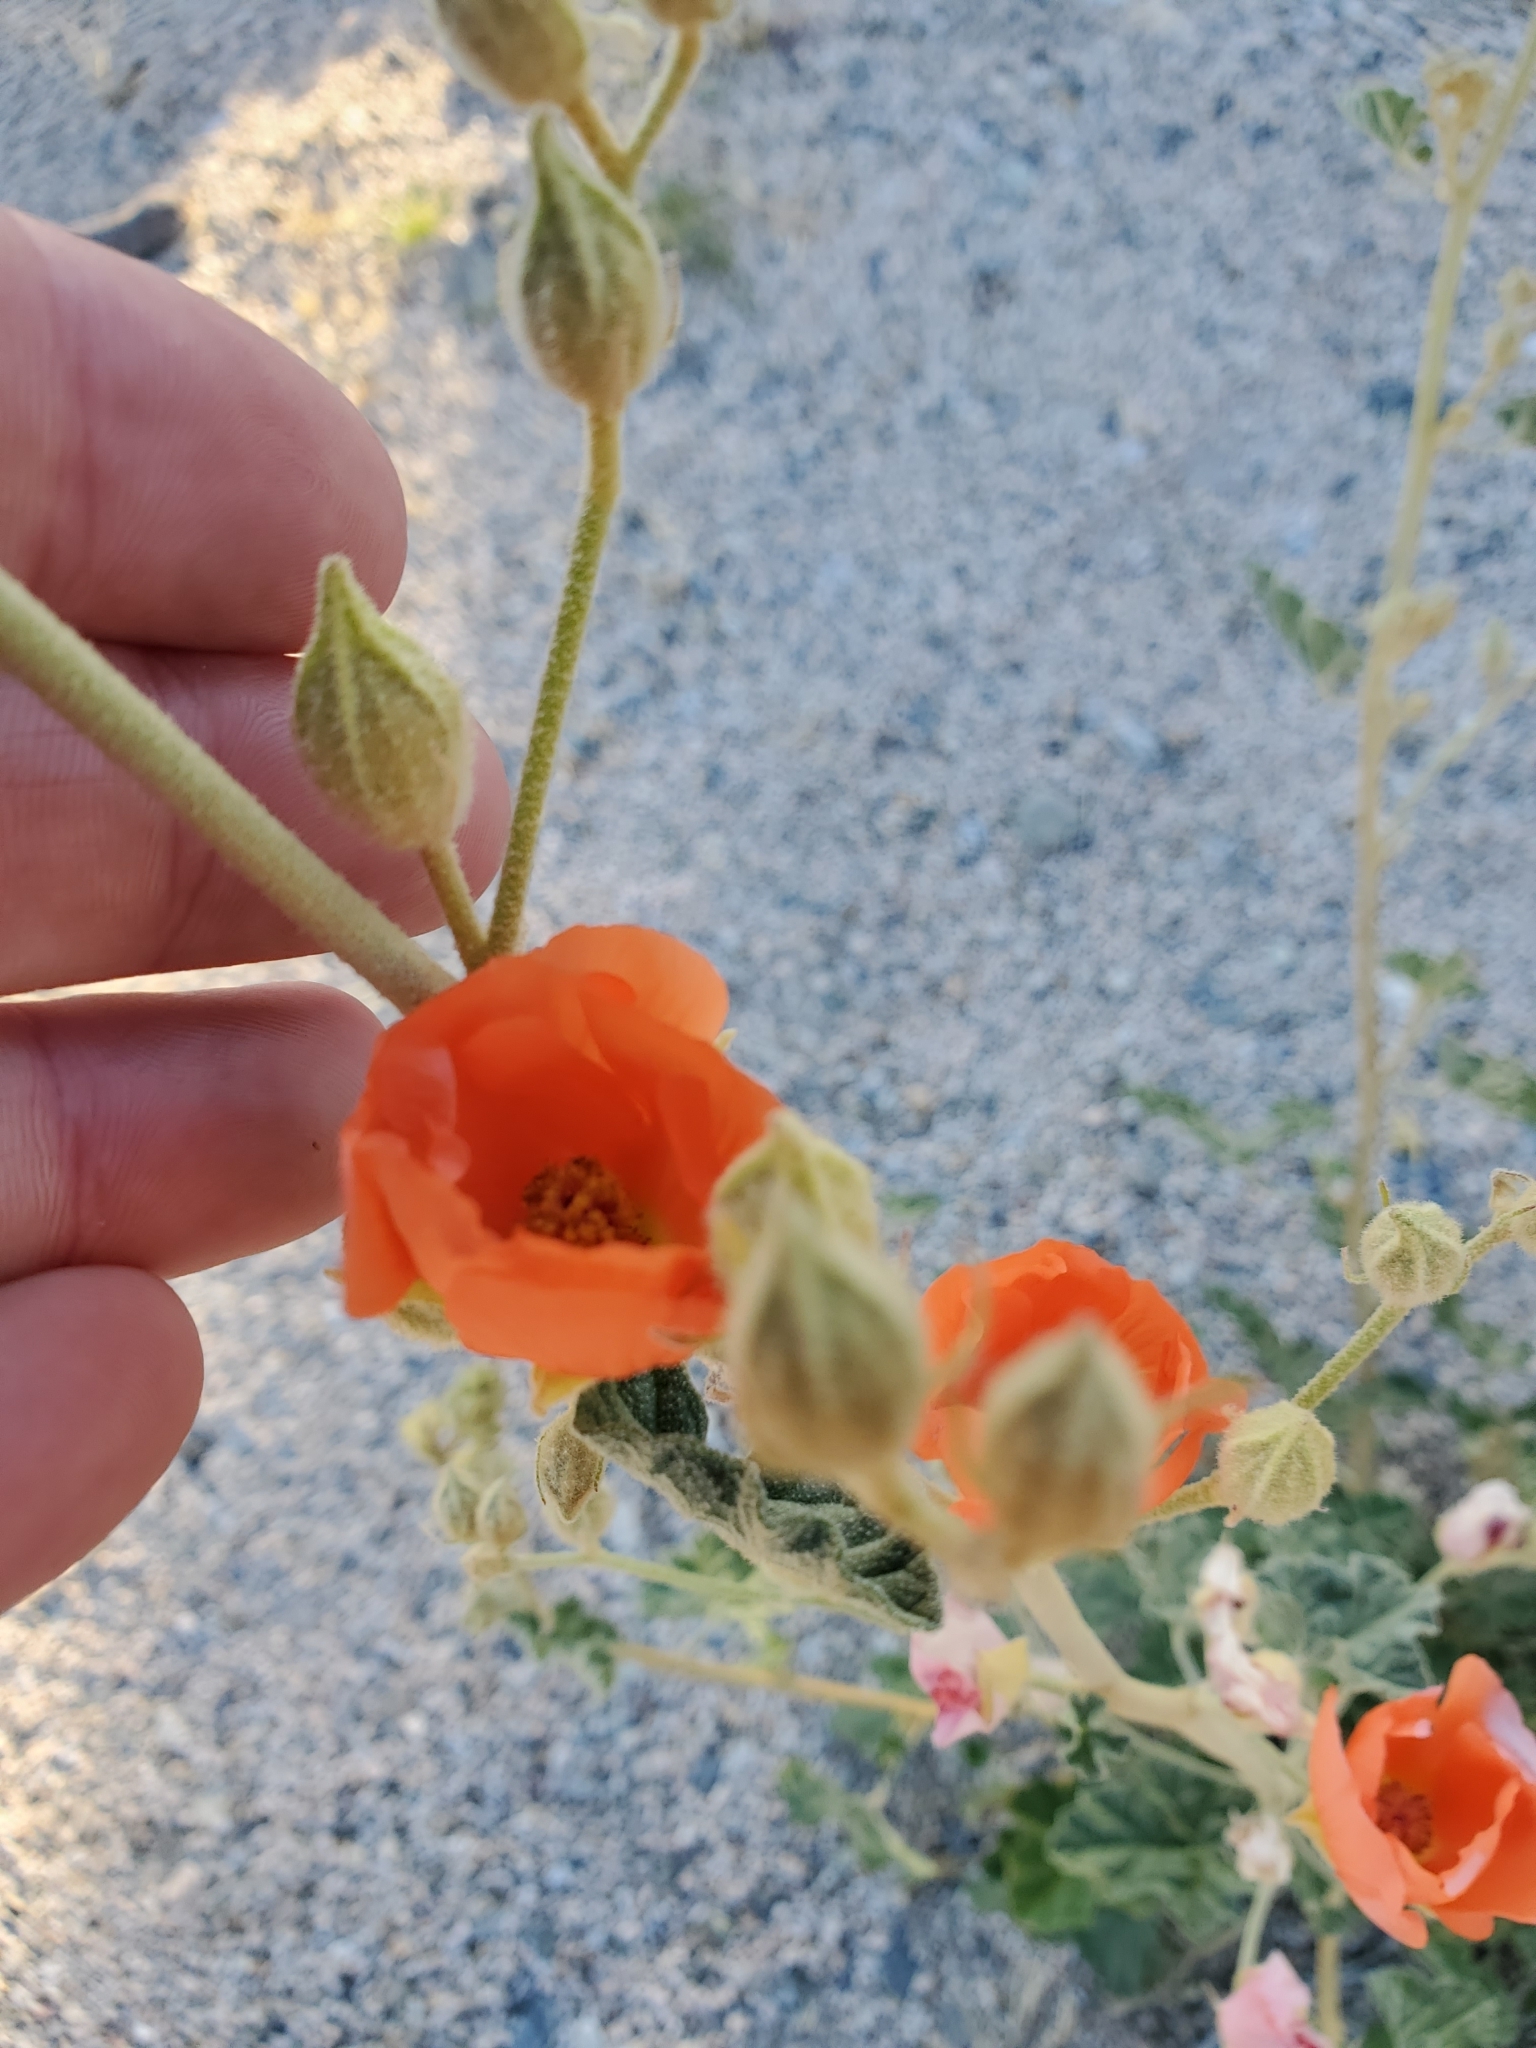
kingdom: Plantae
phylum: Tracheophyta
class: Magnoliopsida
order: Malvales
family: Malvaceae
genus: Sphaeralcea
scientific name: Sphaeralcea ambigua
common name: Apricot globe-mallow
